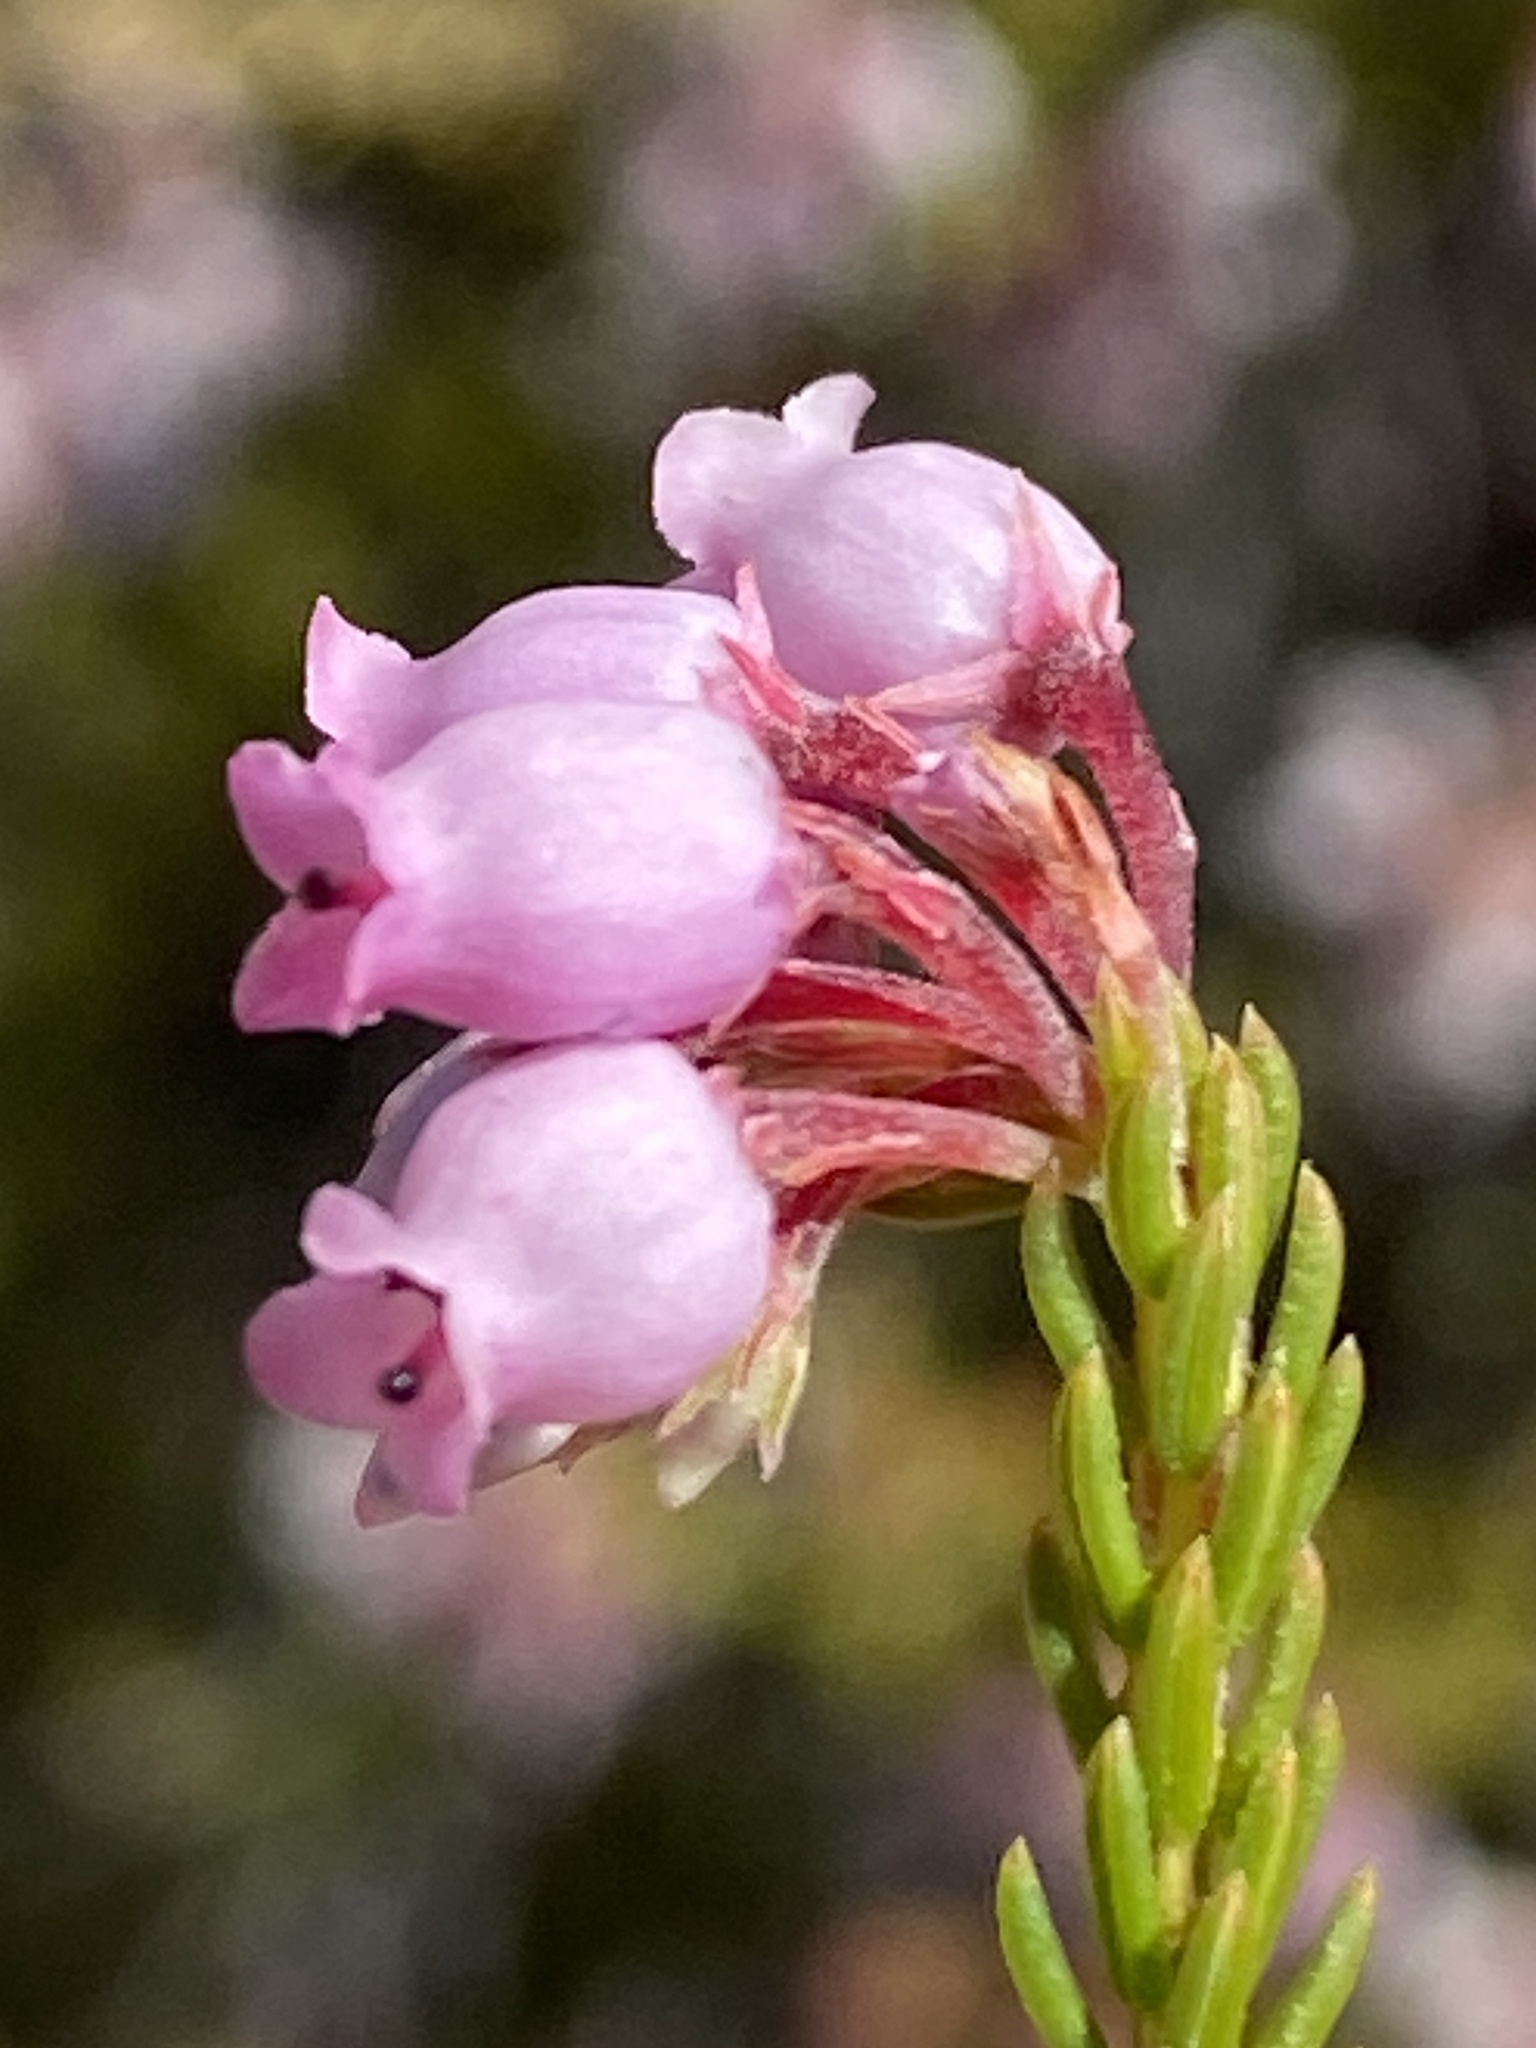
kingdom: Plantae
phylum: Tracheophyta
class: Magnoliopsida
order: Ericales
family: Ericaceae
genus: Erica
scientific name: Erica verecunda
